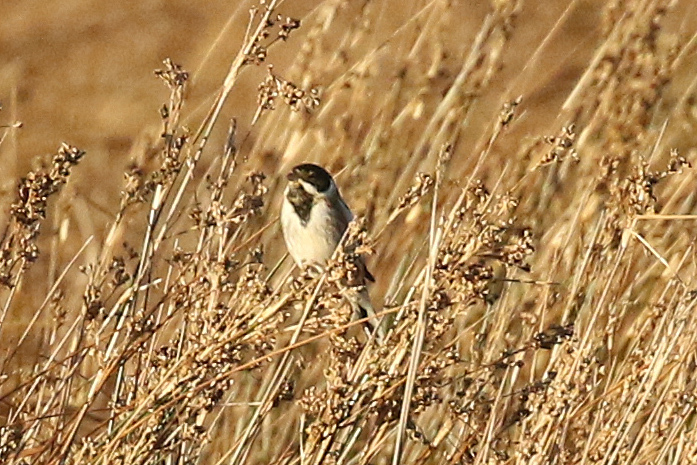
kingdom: Animalia
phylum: Chordata
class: Aves
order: Passeriformes
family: Emberizidae
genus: Emberiza
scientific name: Emberiza schoeniclus
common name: Reed bunting
